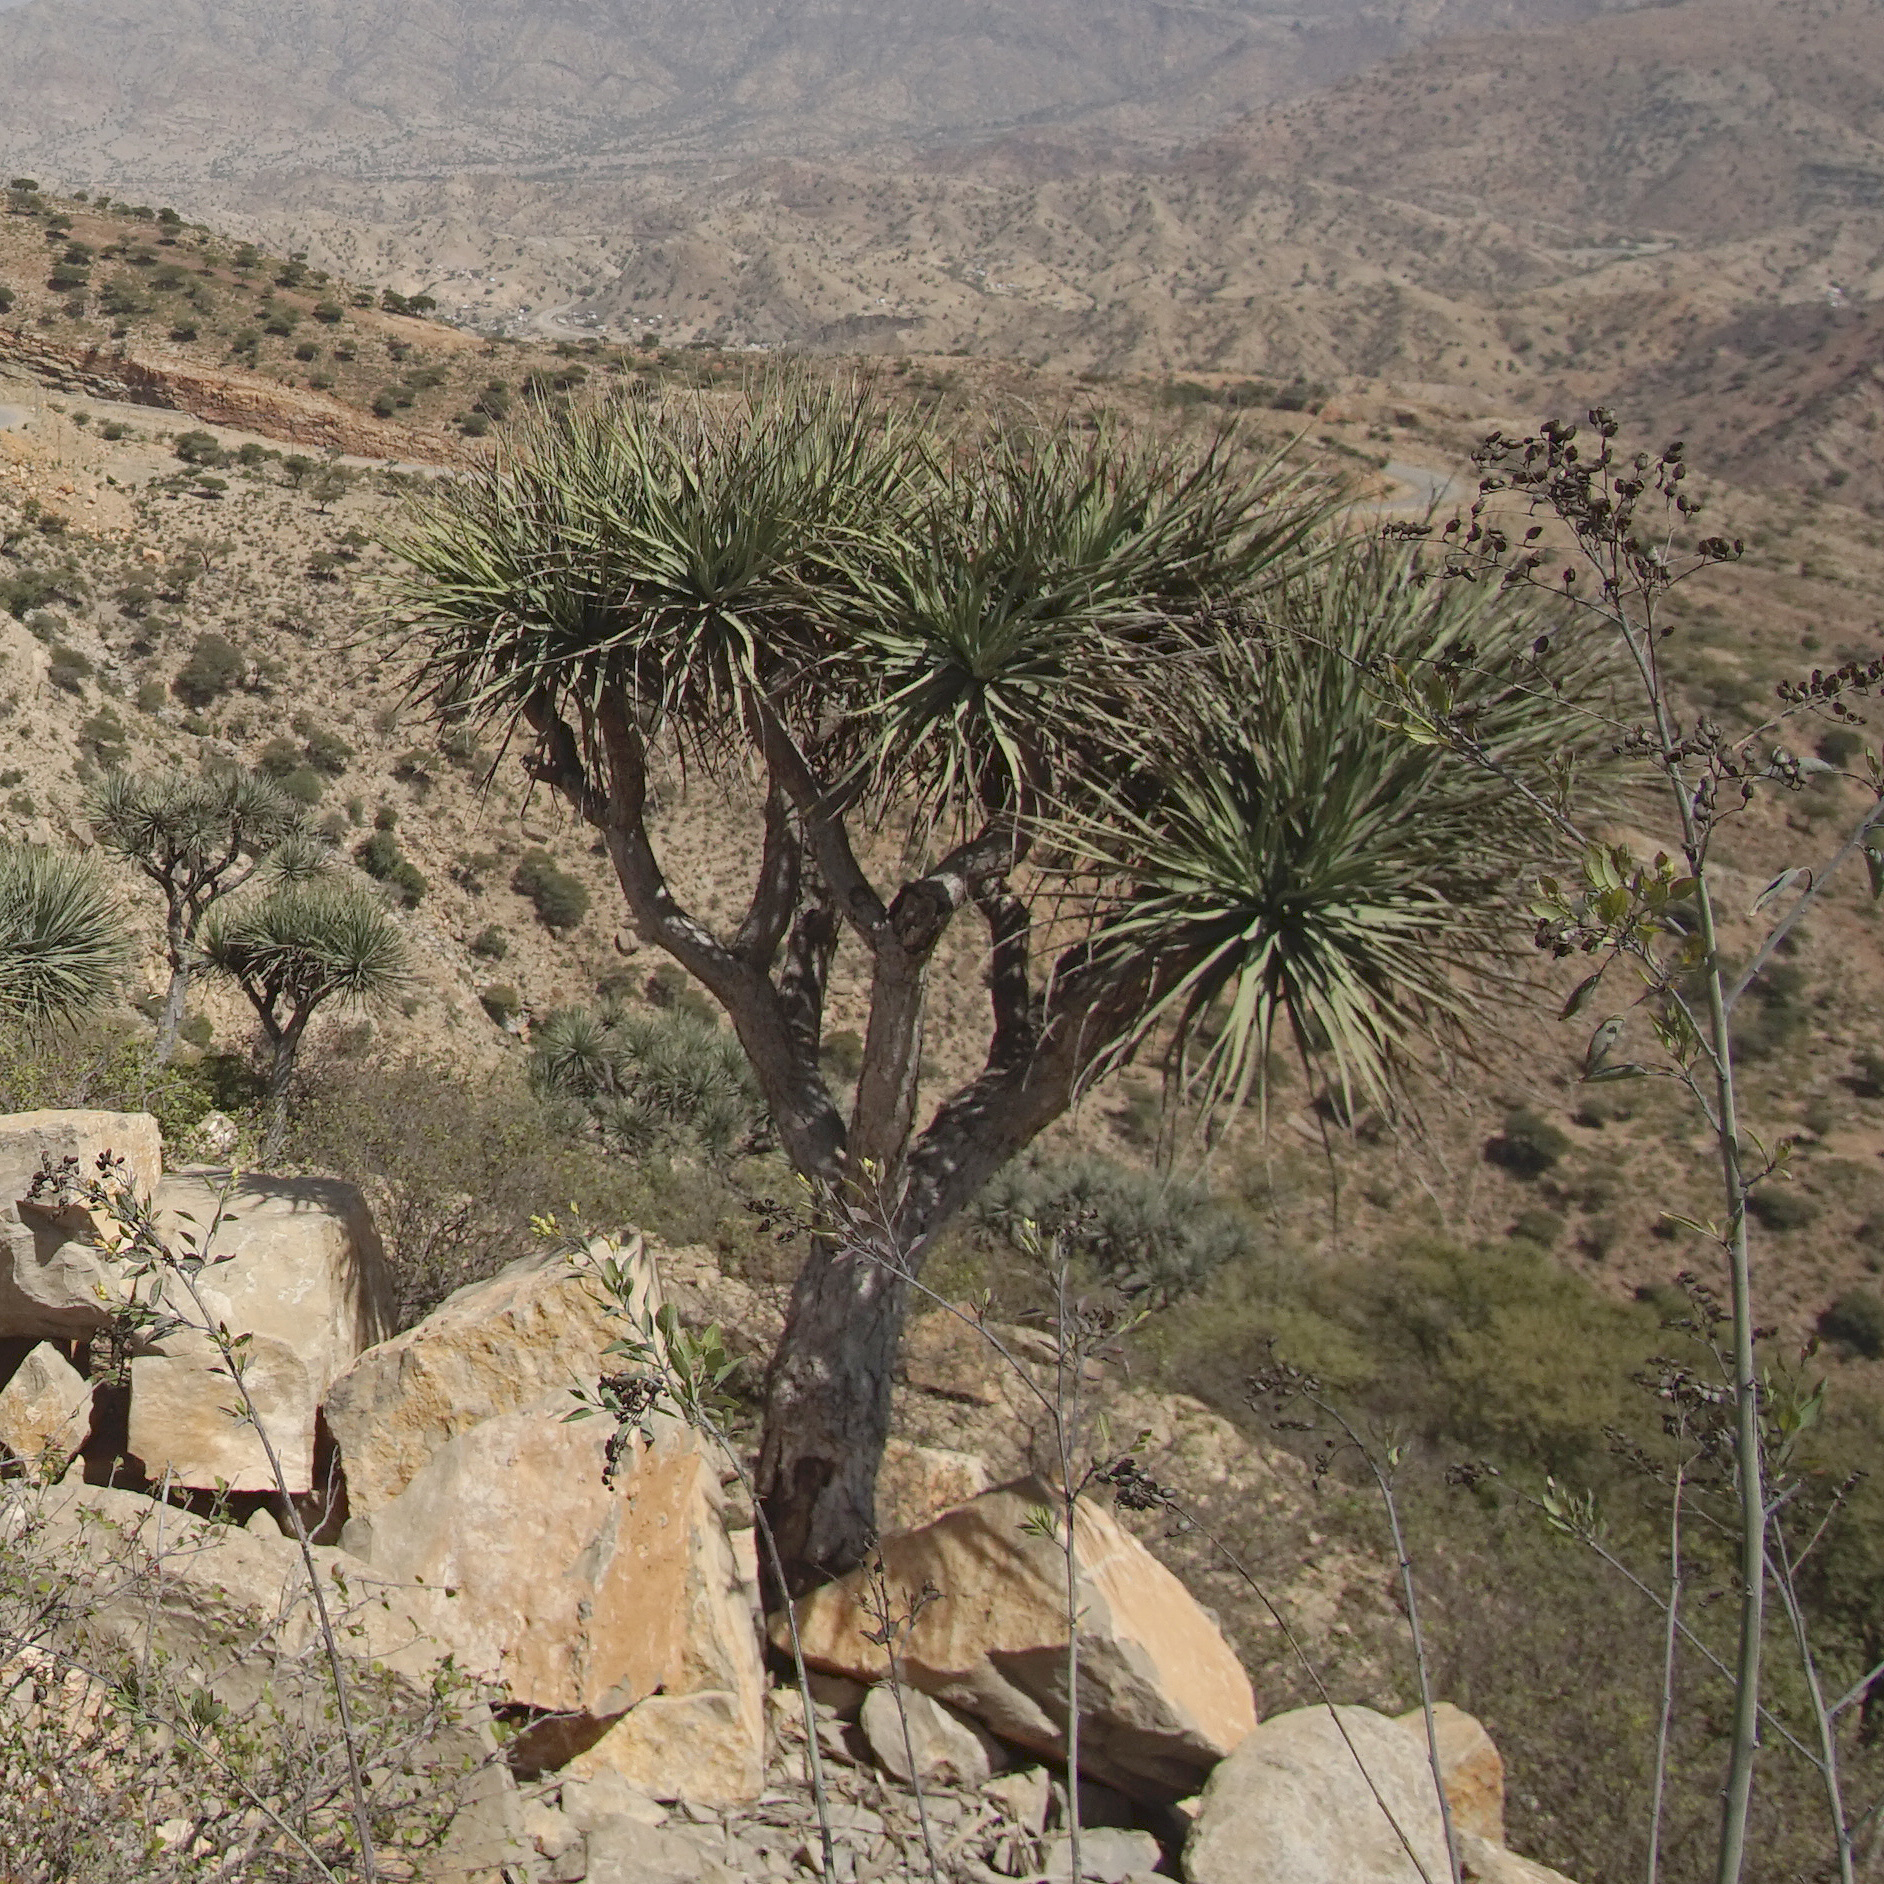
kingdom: Plantae
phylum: Tracheophyta
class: Liliopsida
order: Asparagales
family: Asparagaceae
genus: Dracaena
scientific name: Dracaena ombet
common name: Gabal elba dragon tree
